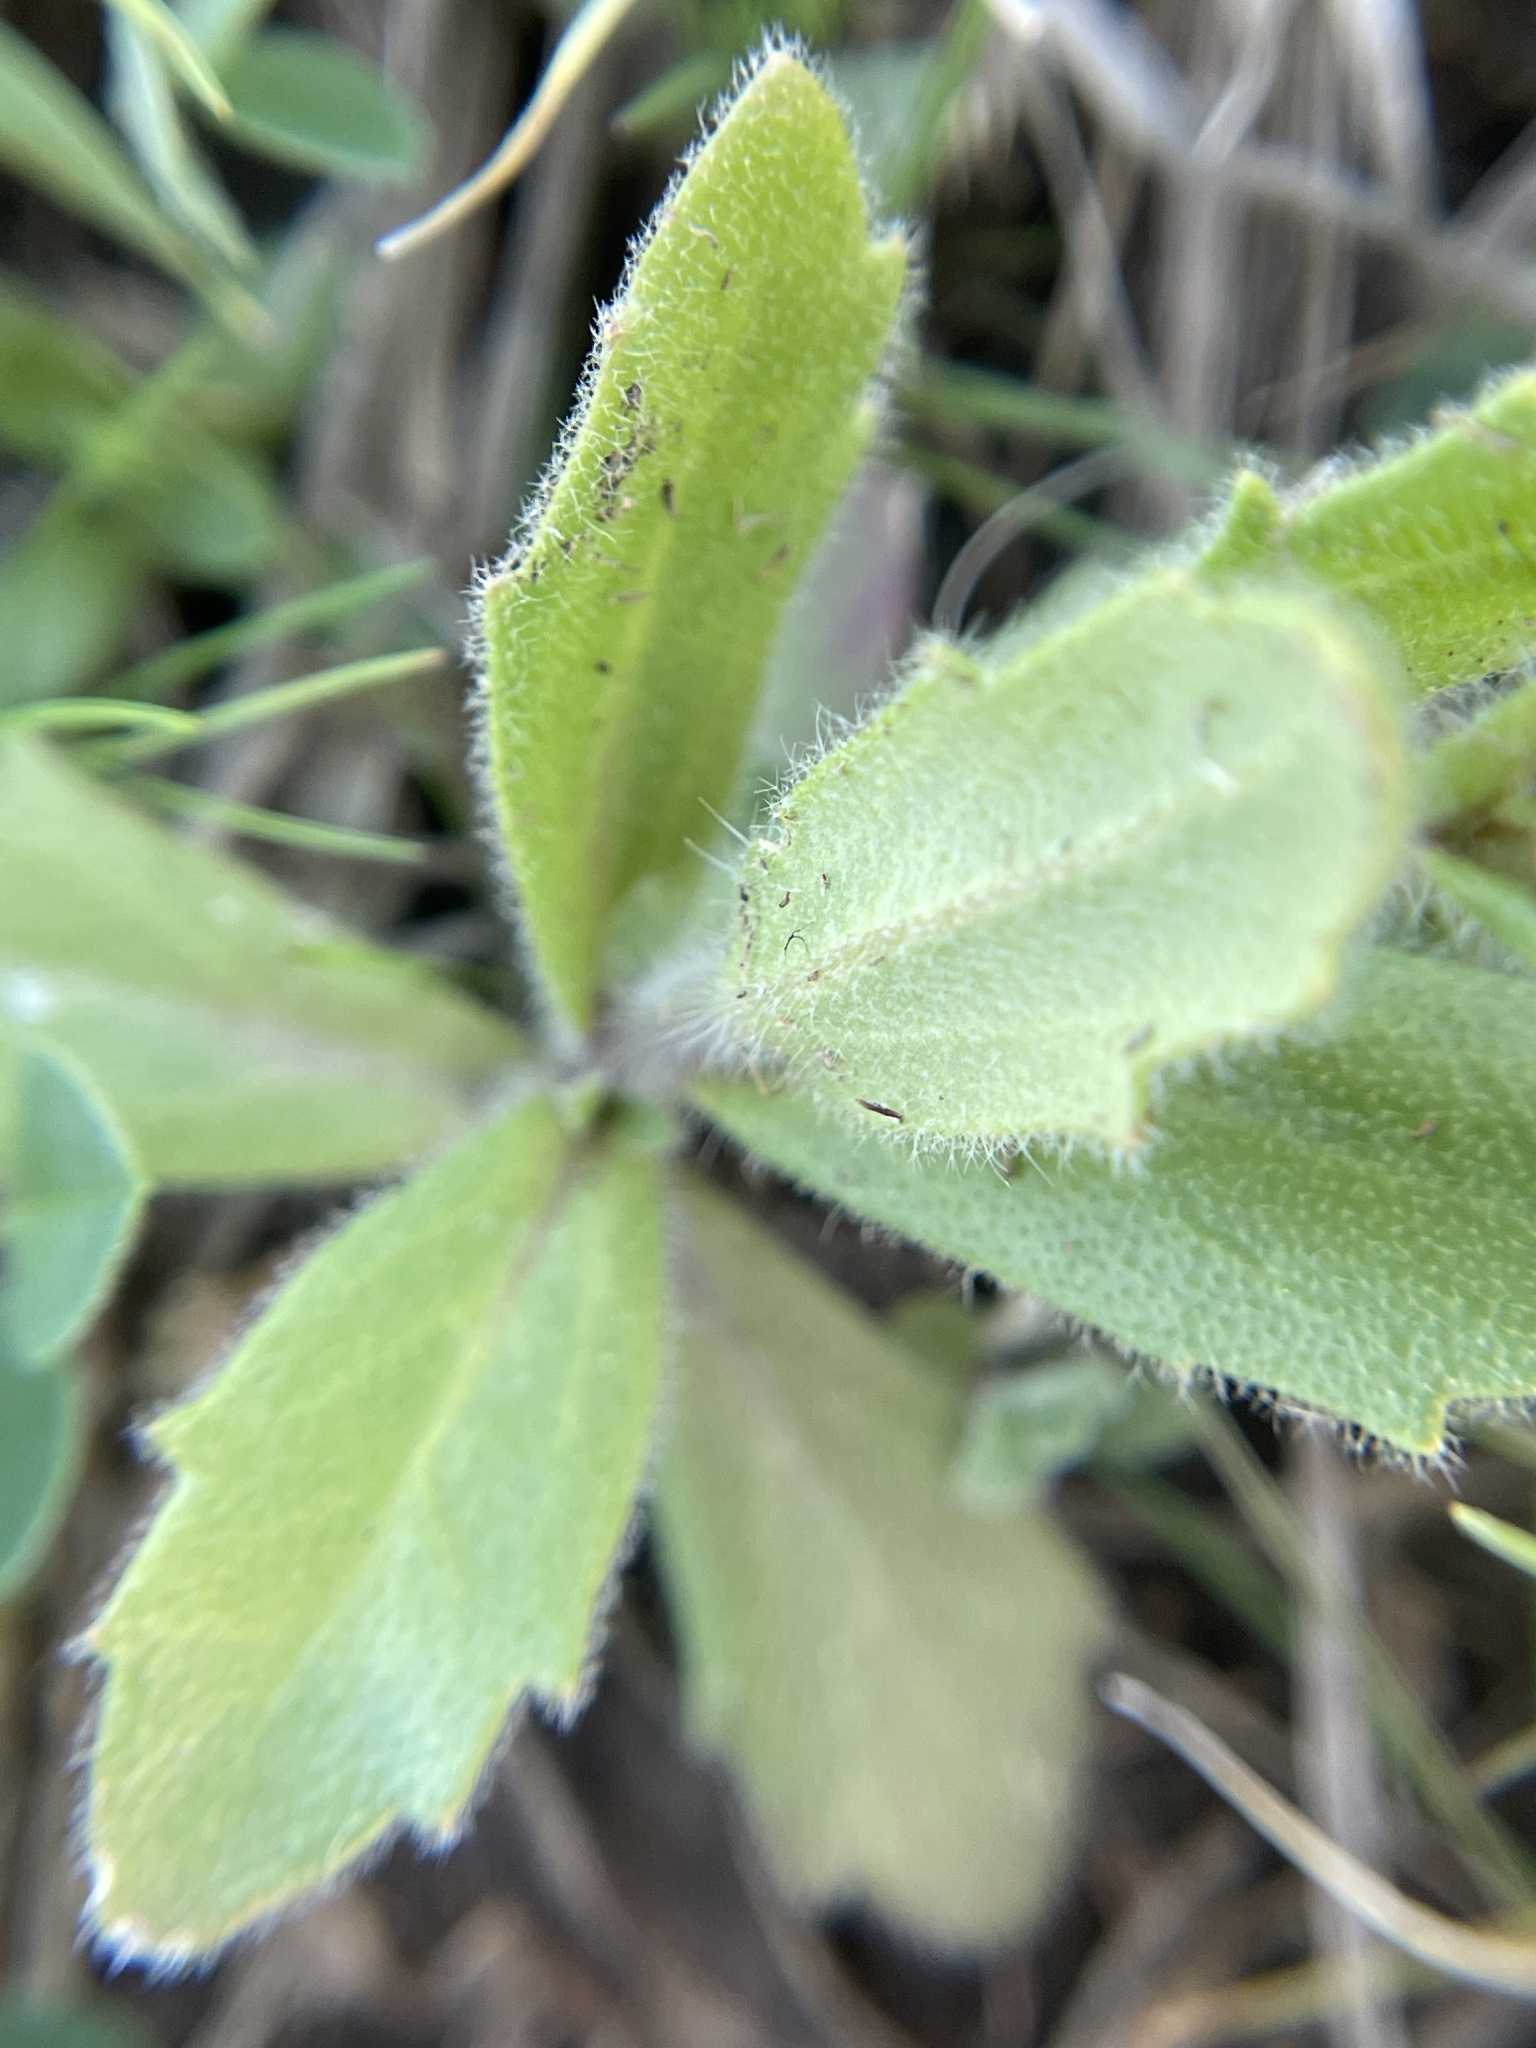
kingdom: Plantae
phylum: Tracheophyta
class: Magnoliopsida
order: Brassicales
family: Brassicaceae
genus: Tomostima
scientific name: Tomostima platycarpa
